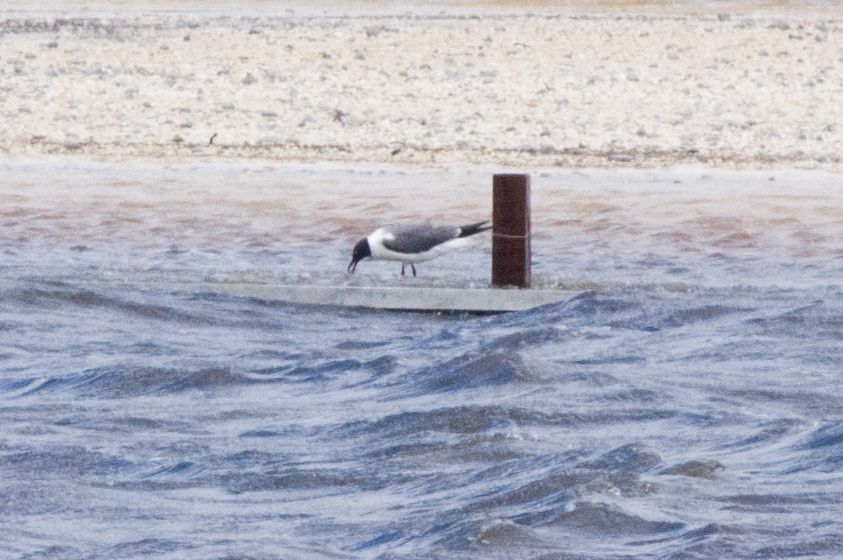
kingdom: Animalia
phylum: Chordata
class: Aves
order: Charadriiformes
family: Laridae
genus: Leucophaeus
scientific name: Leucophaeus atricilla
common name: Laughing gull
